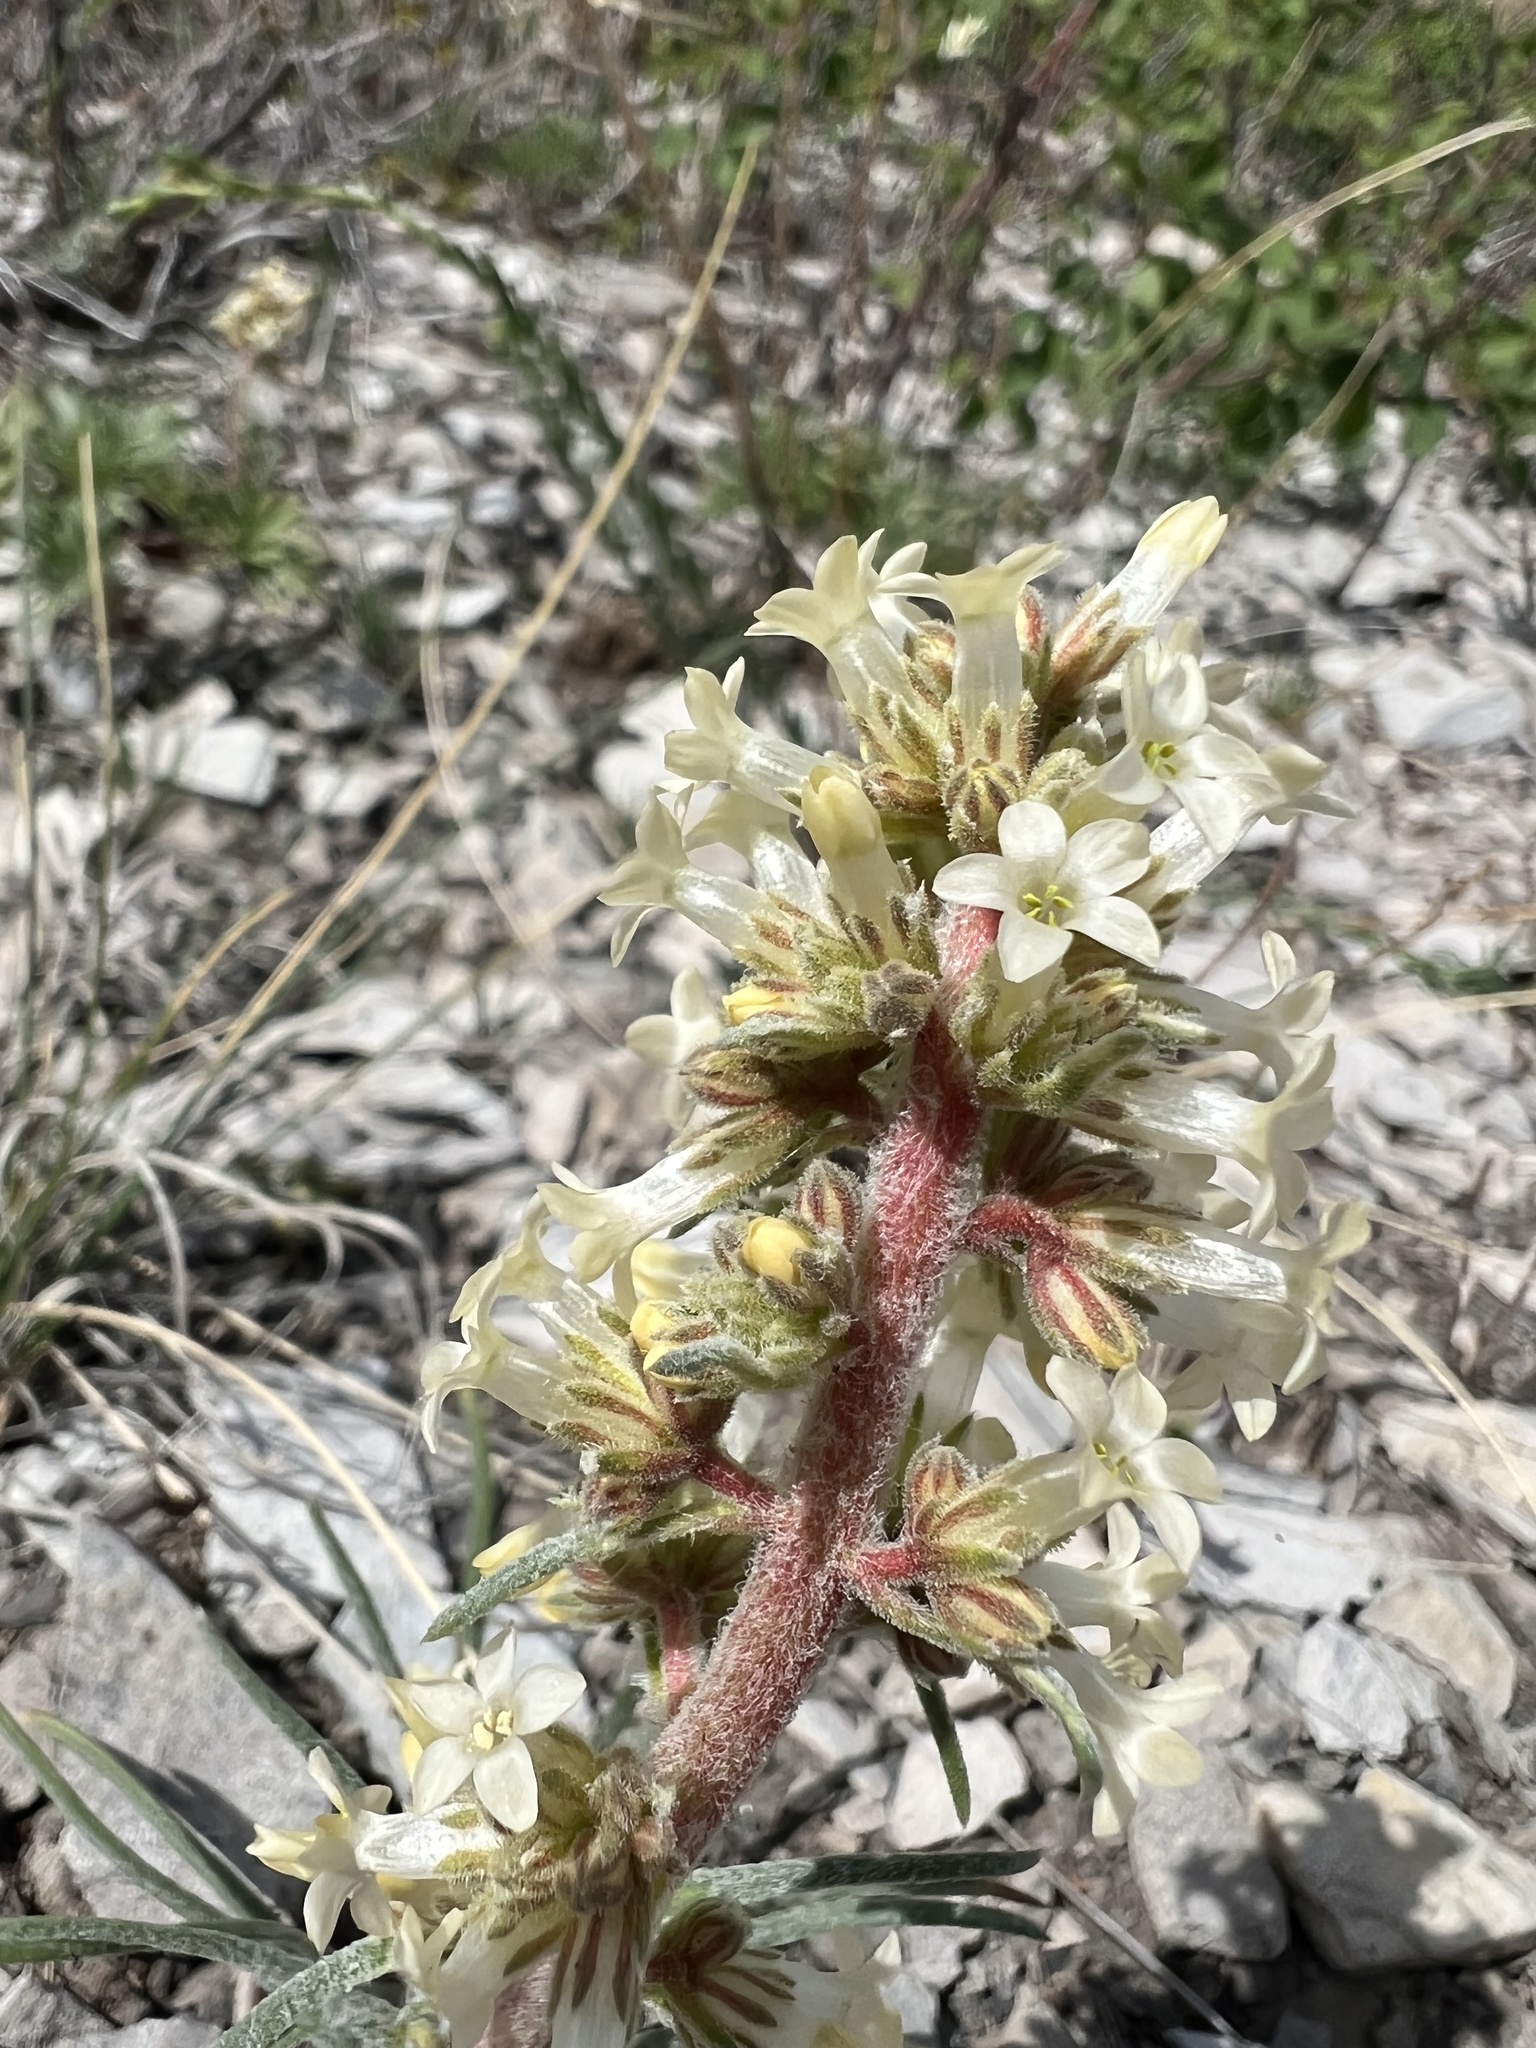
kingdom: Plantae
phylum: Tracheophyta
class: Magnoliopsida
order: Ericales
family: Polemoniaceae
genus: Ipomopsis
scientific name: Ipomopsis spicata
